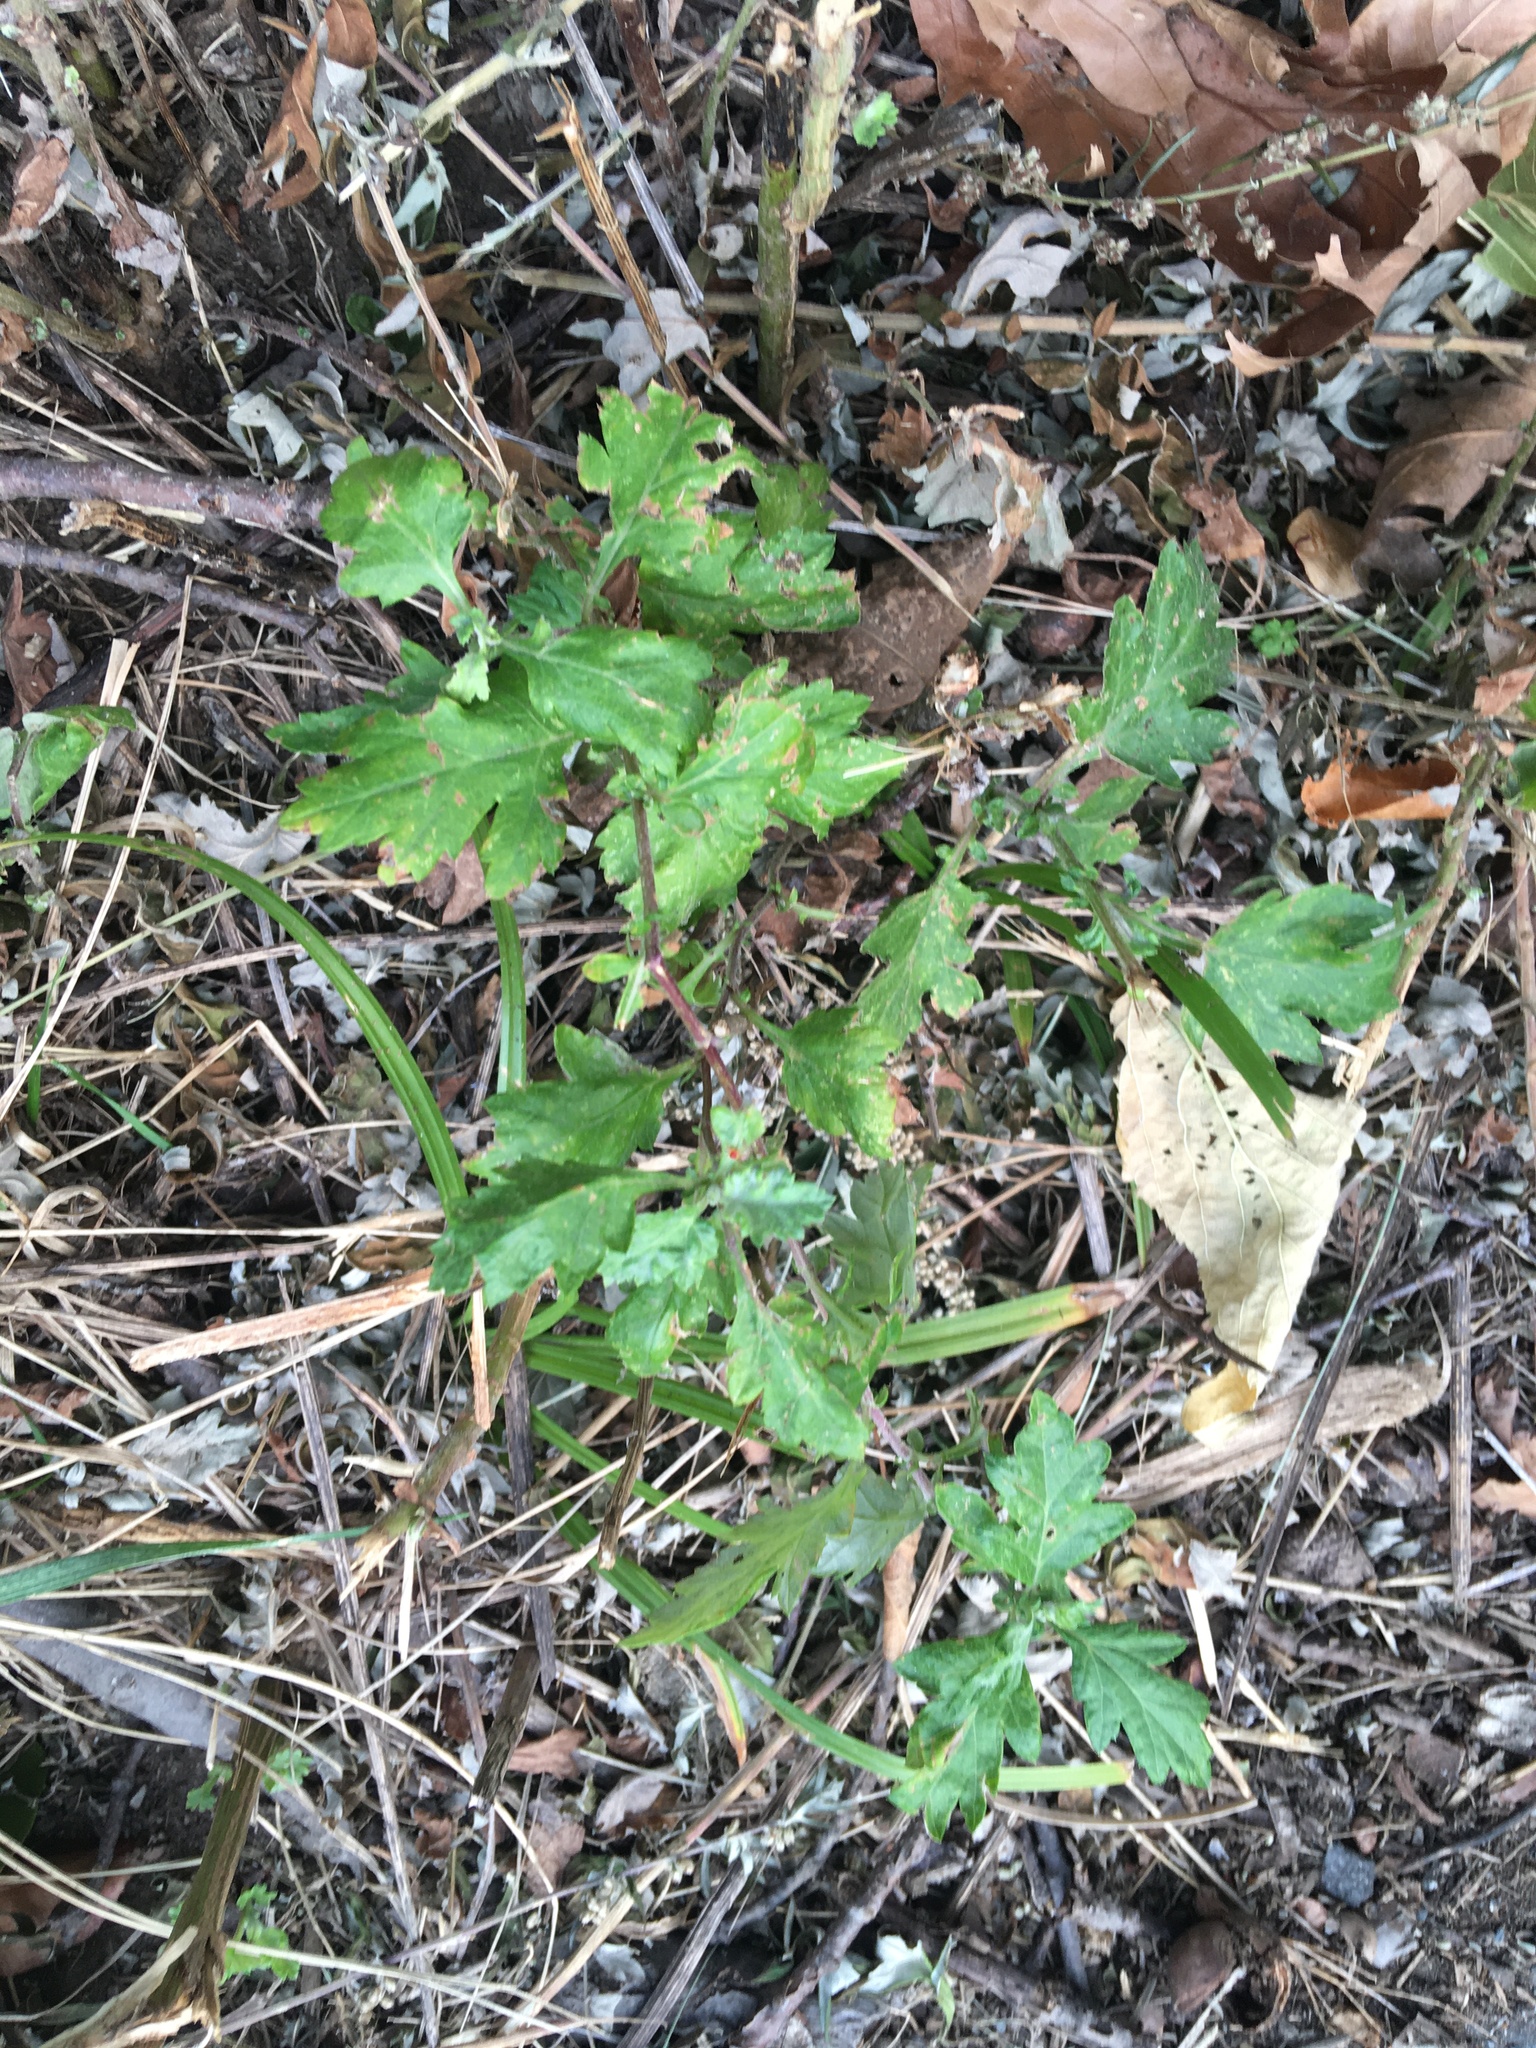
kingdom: Plantae
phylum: Tracheophyta
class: Magnoliopsida
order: Asterales
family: Asteraceae
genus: Artemisia
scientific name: Artemisia vulgaris
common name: Mugwort
